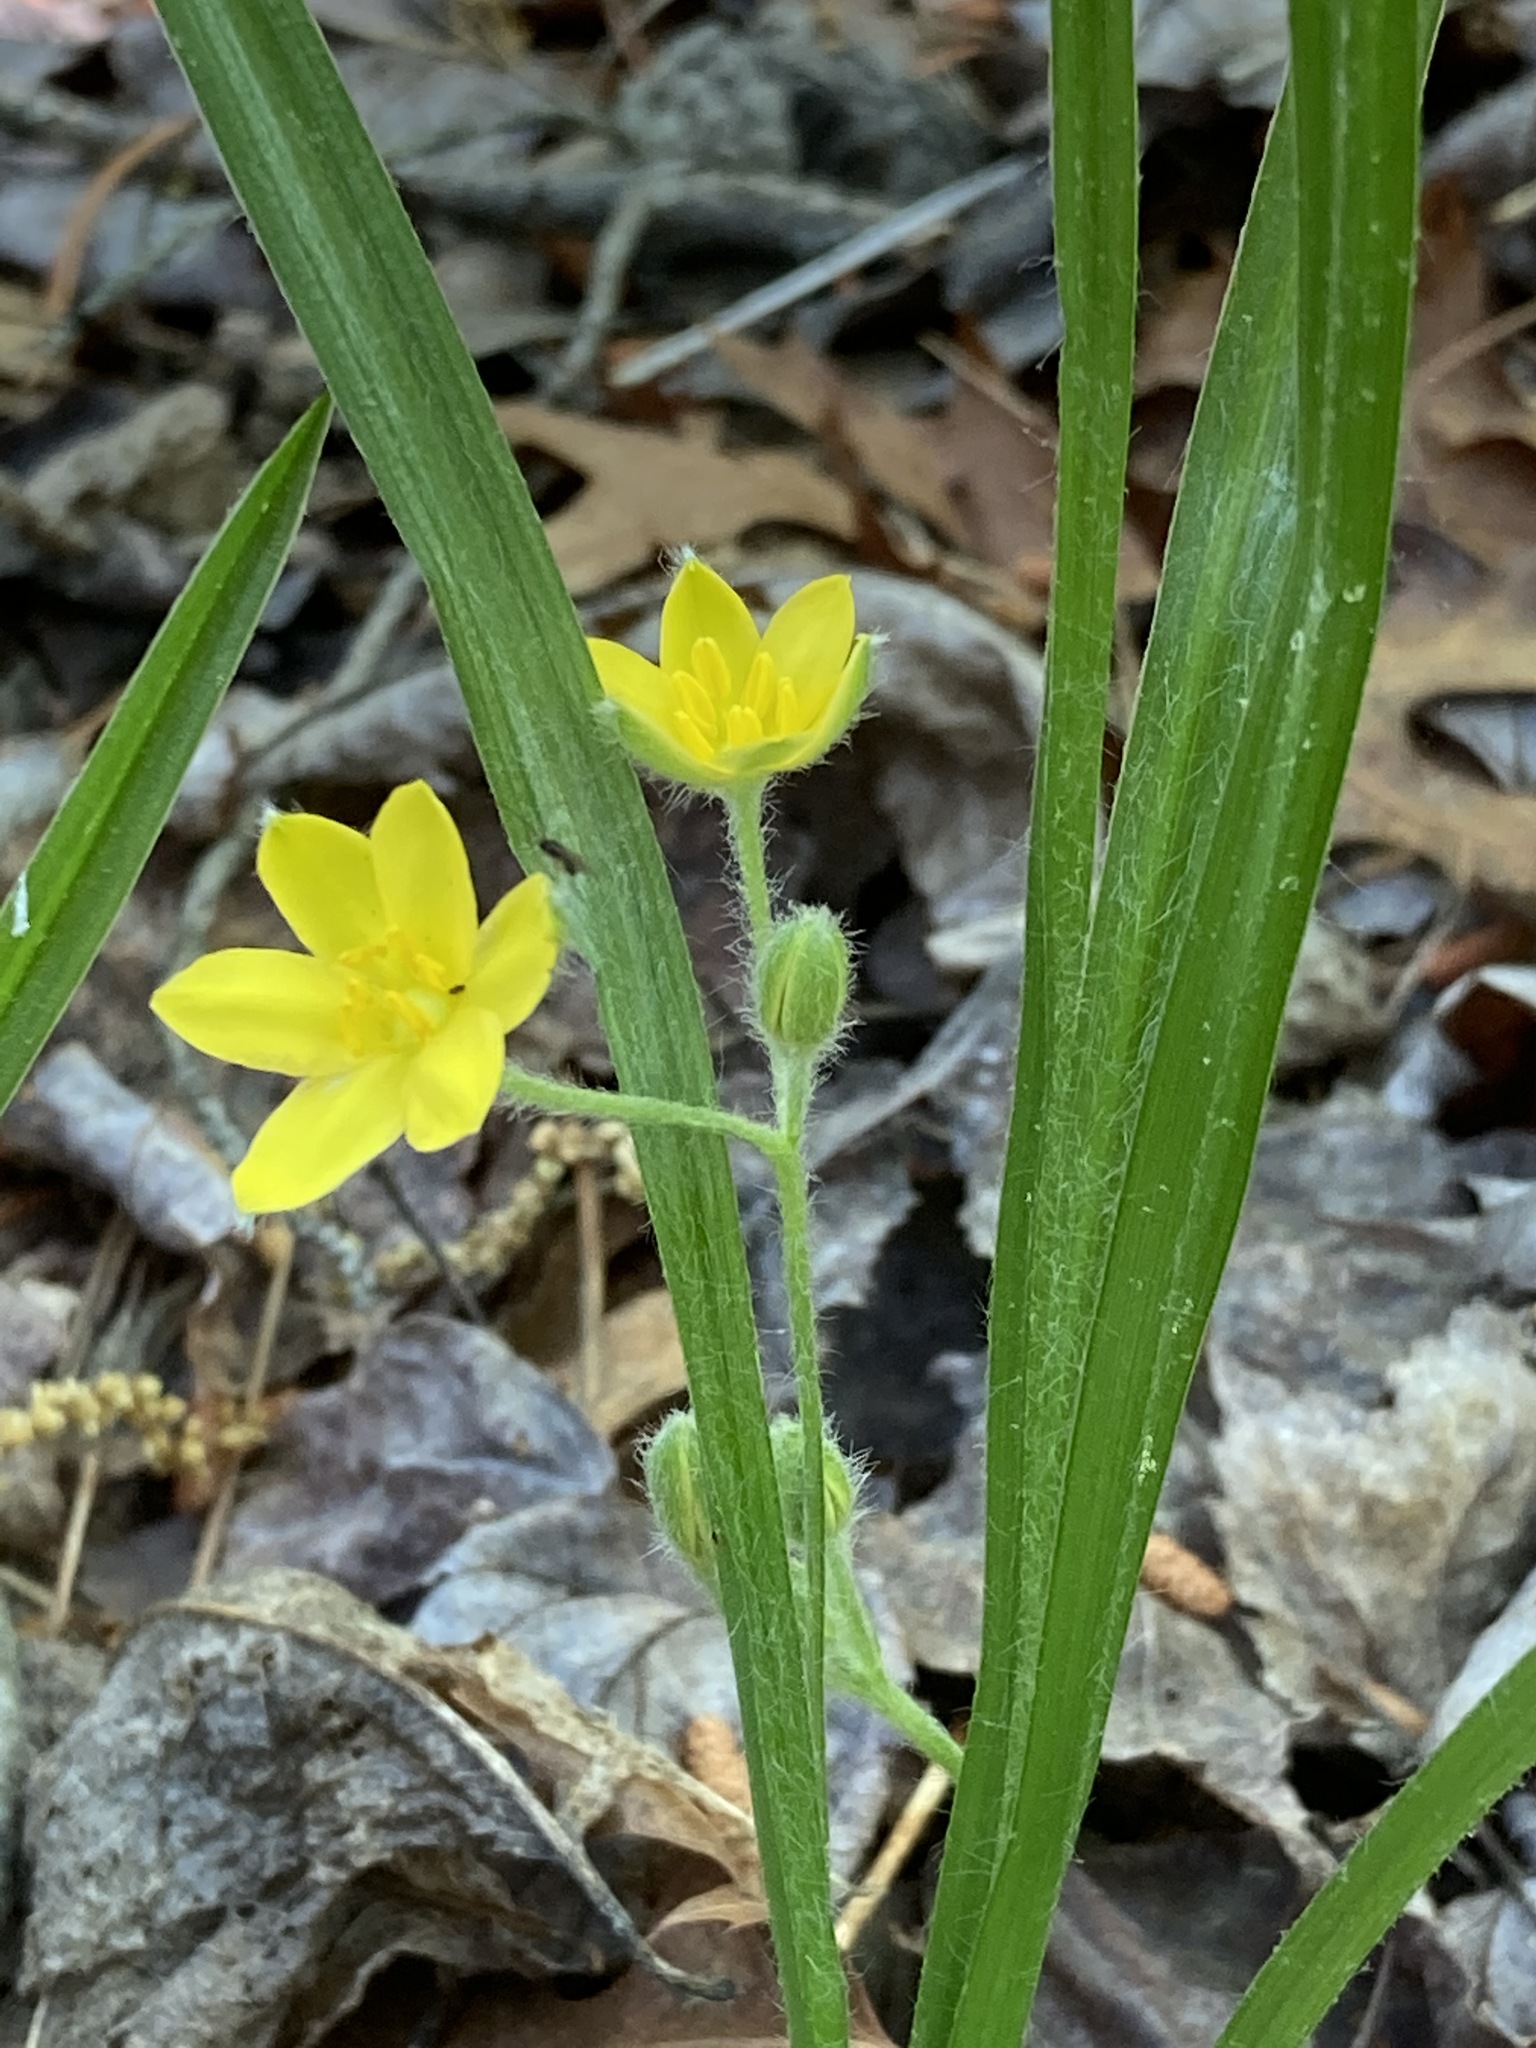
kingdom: Plantae
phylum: Tracheophyta
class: Liliopsida
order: Asparagales
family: Hypoxidaceae
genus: Hypoxis
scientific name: Hypoxis hirsuta
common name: Common goldstar
